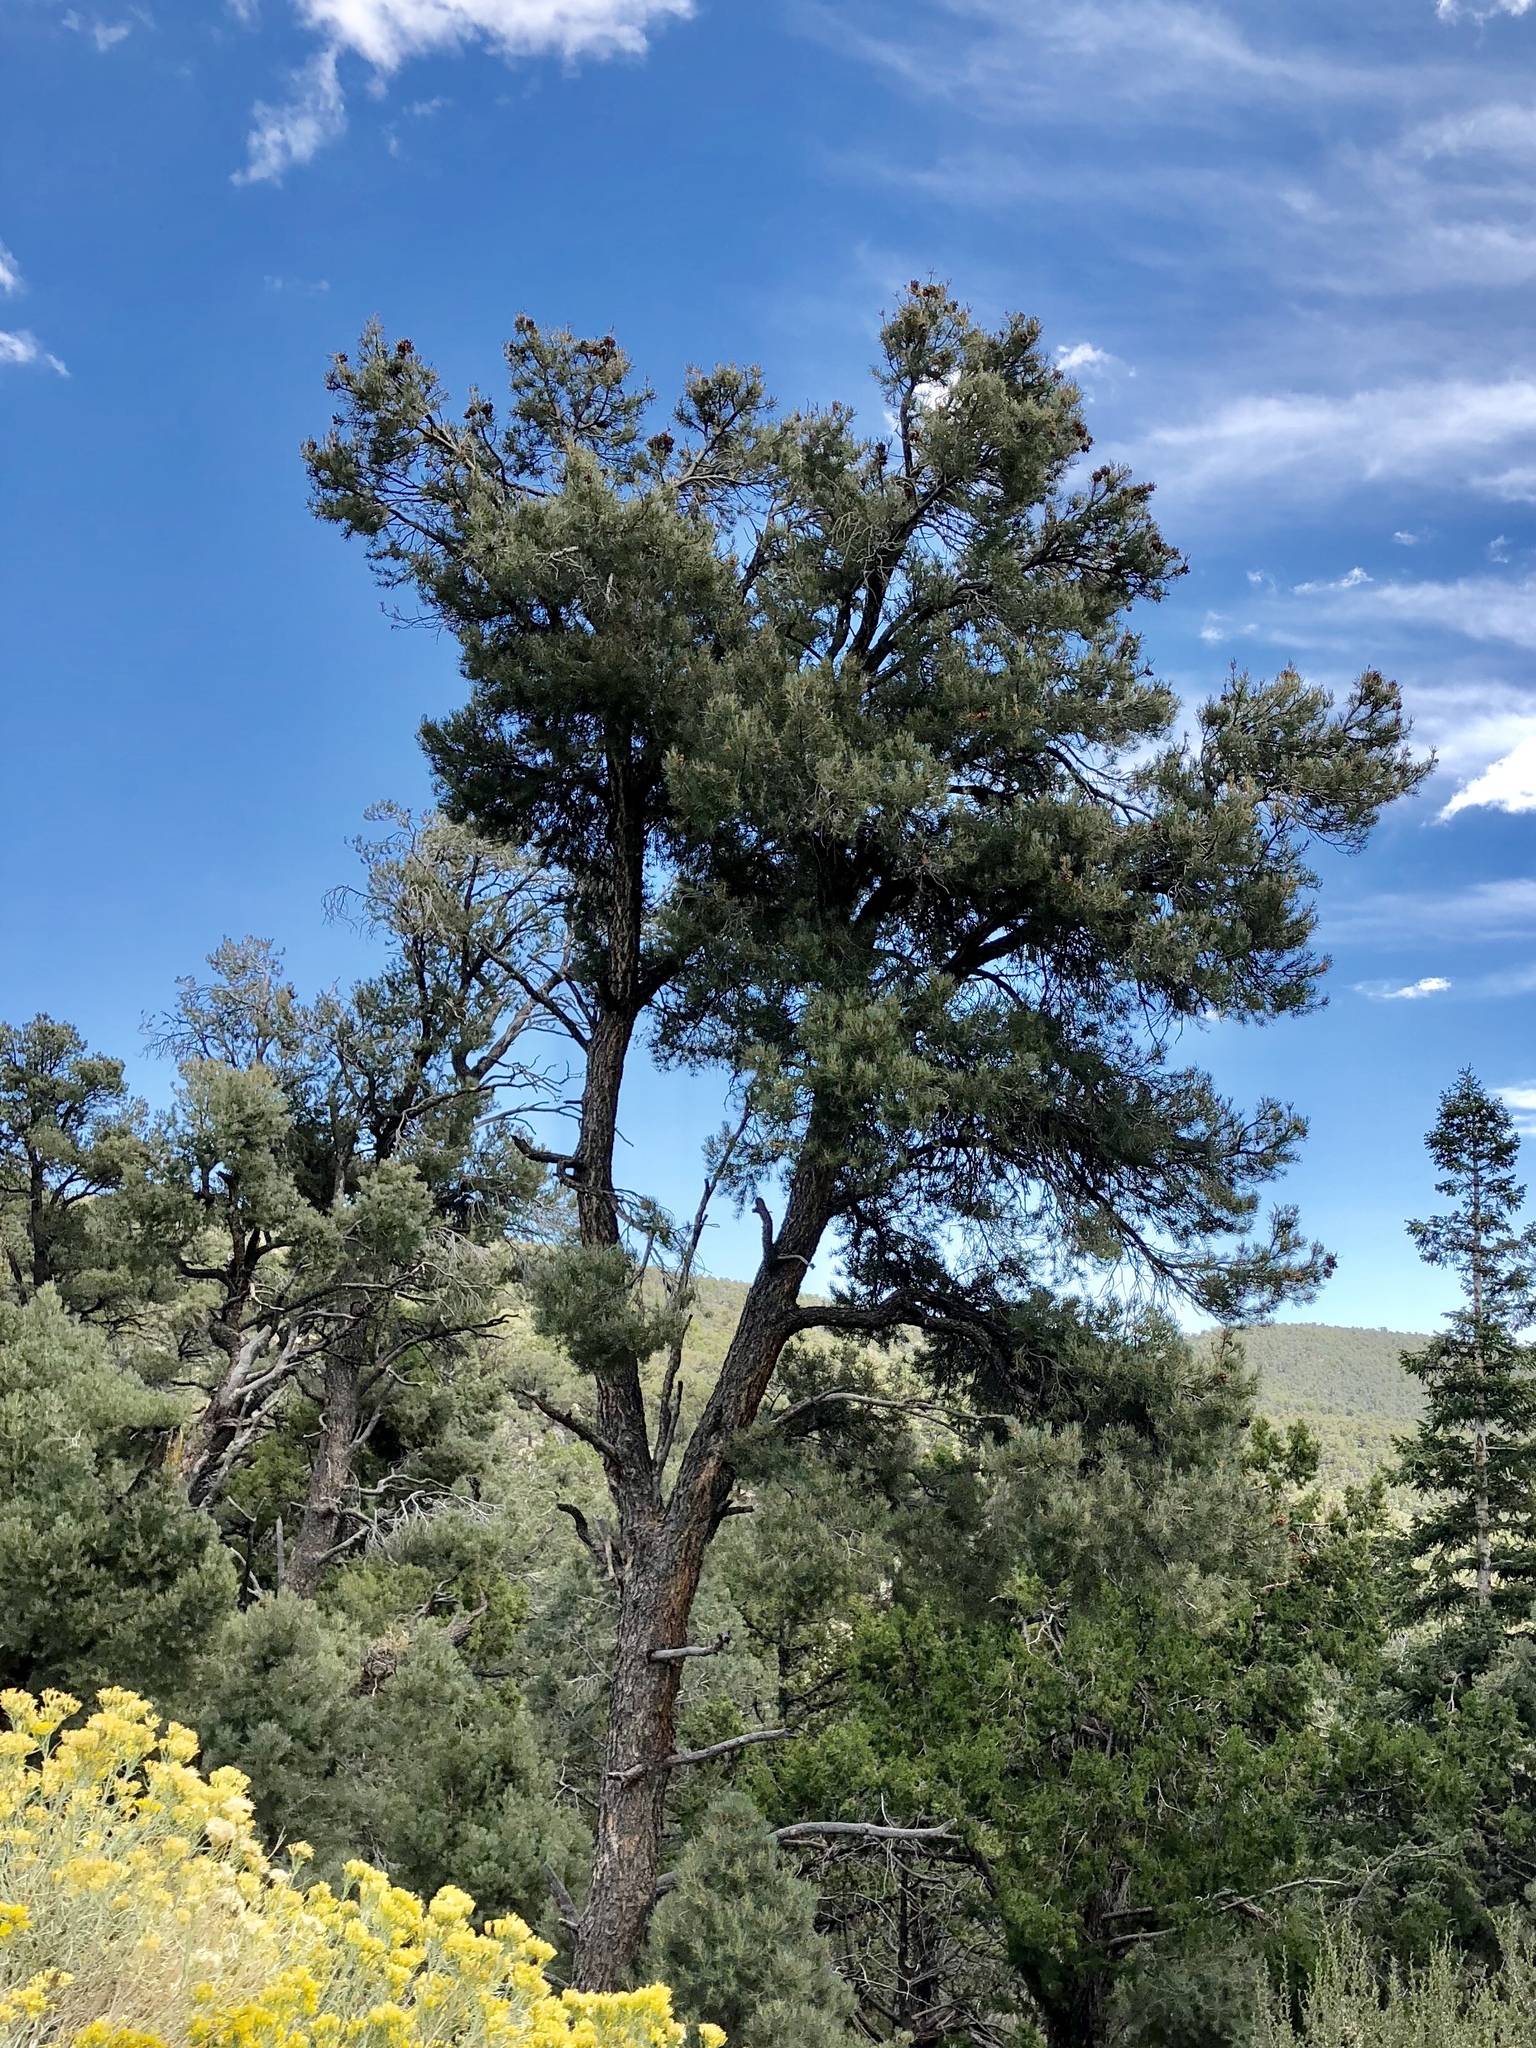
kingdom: Plantae
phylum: Tracheophyta
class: Pinopsida
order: Pinales
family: Pinaceae
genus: Pinus
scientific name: Pinus monophylla
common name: One-leaved nut pine
